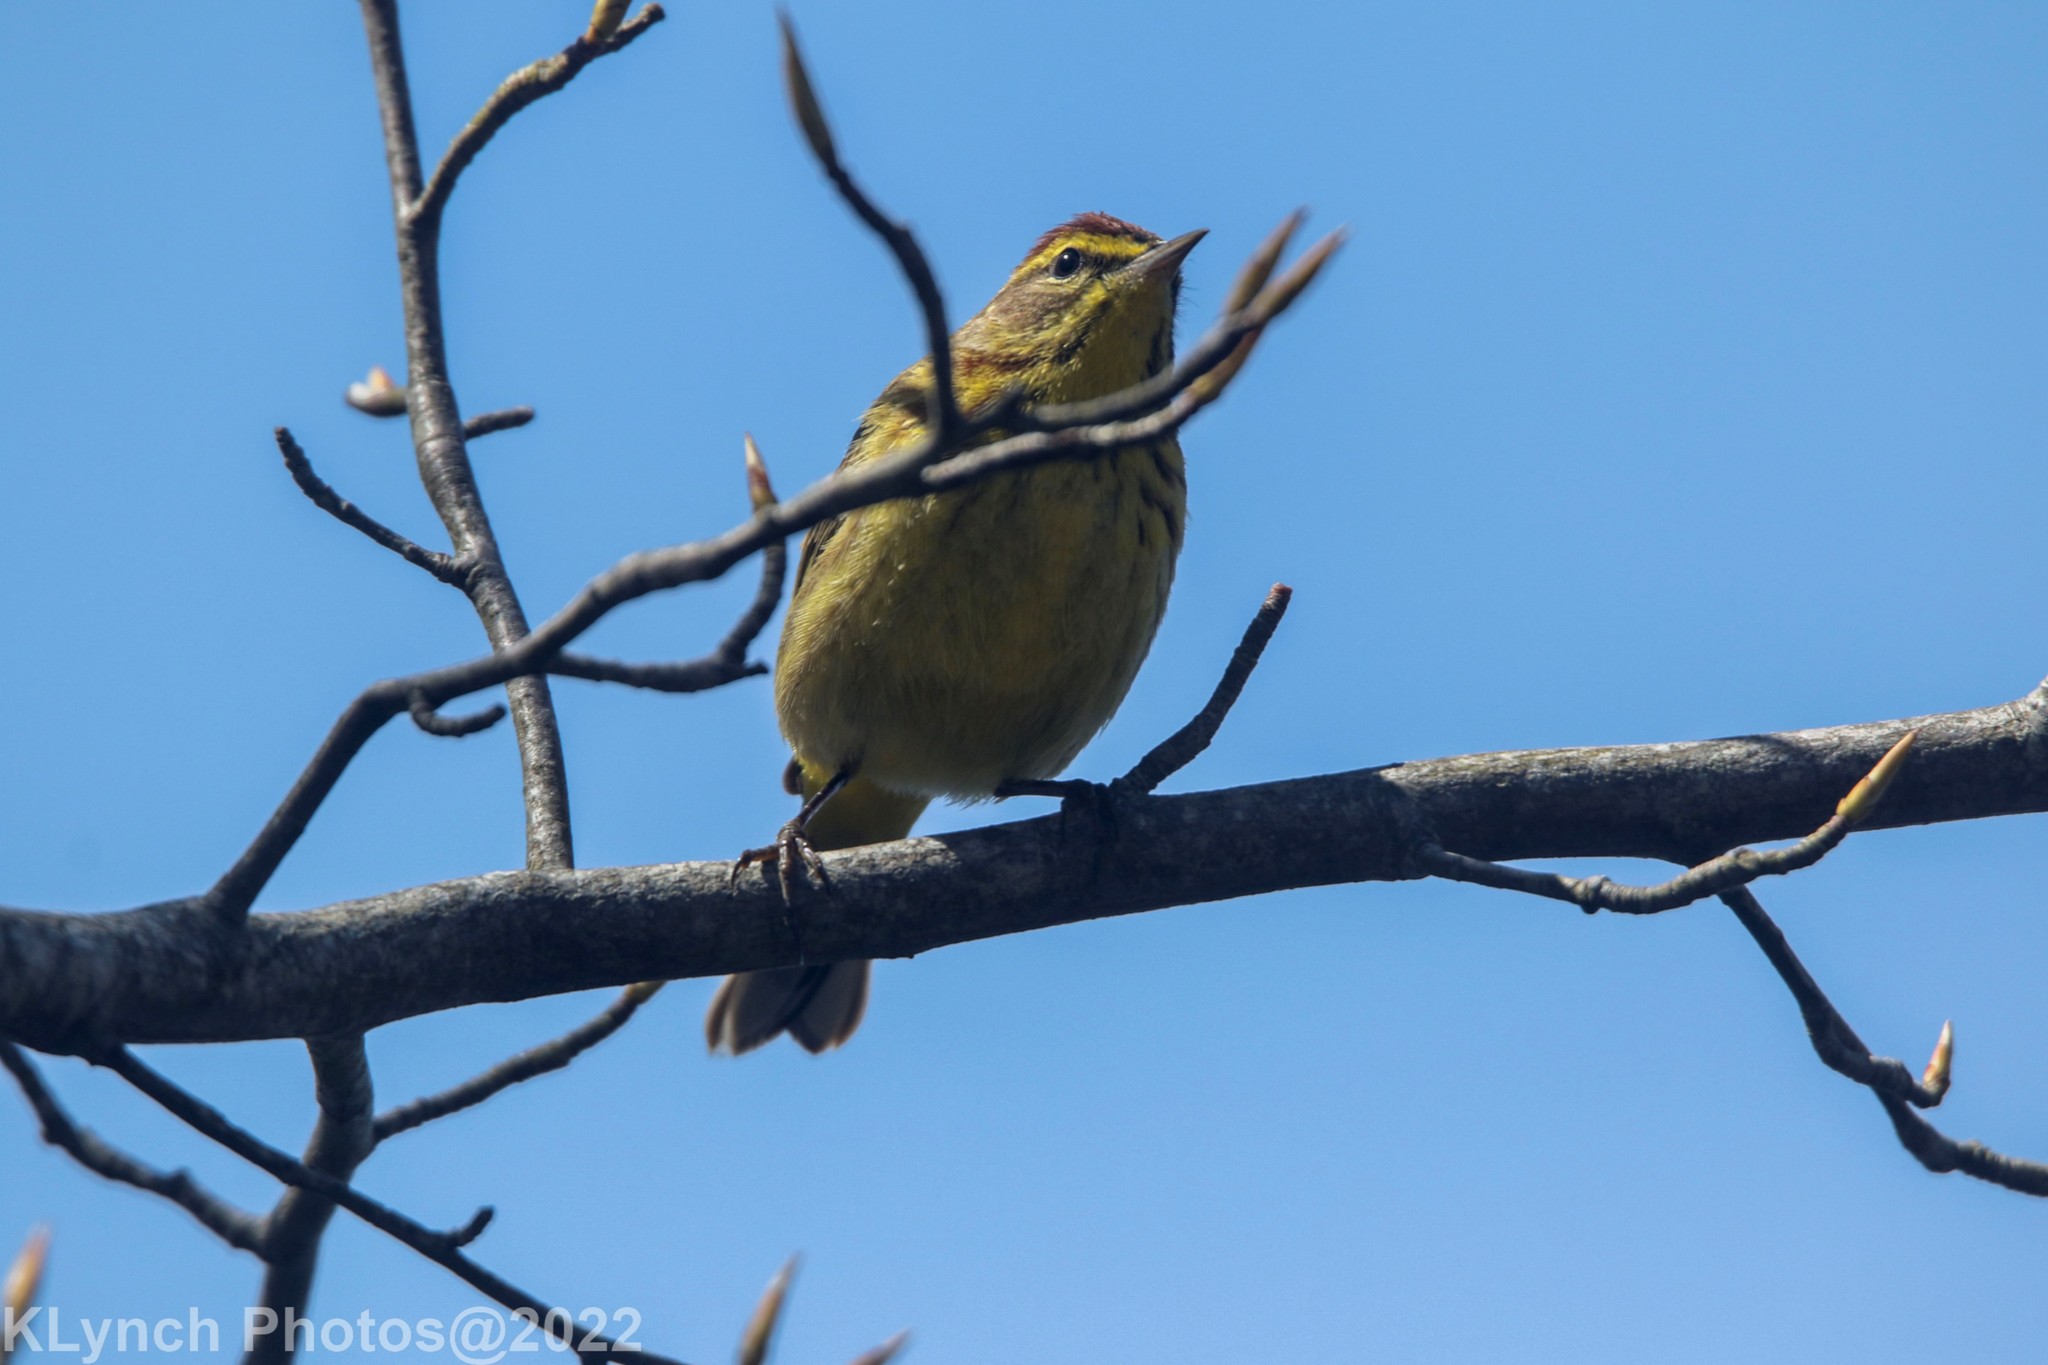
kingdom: Animalia
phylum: Chordata
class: Aves
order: Passeriformes
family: Parulidae
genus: Setophaga
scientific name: Setophaga palmarum
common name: Palm warbler
